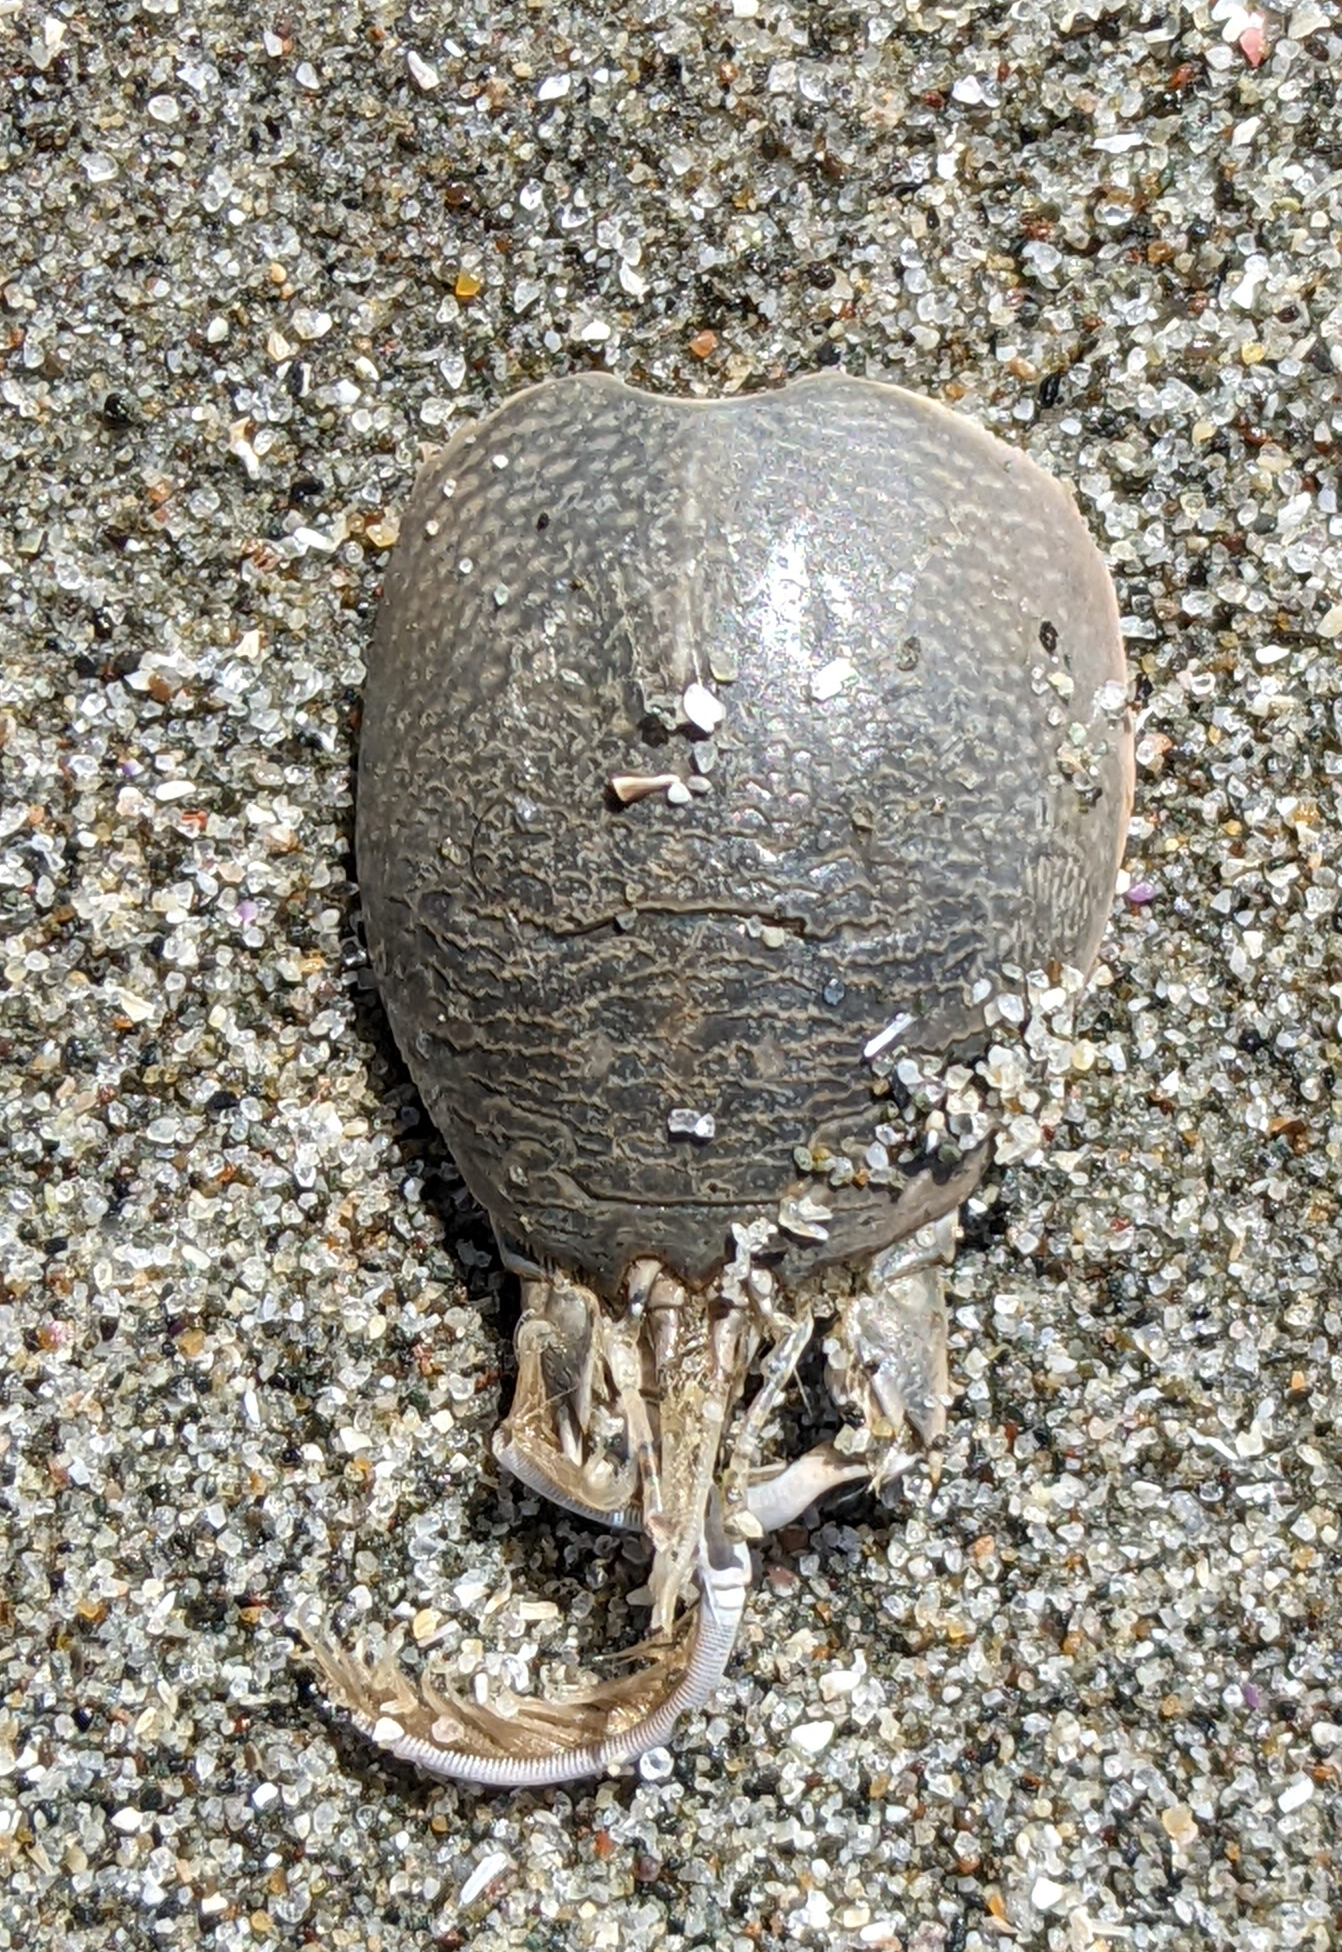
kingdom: Animalia
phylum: Arthropoda
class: Malacostraca
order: Decapoda
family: Hippidae
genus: Emerita
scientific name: Emerita analoga
